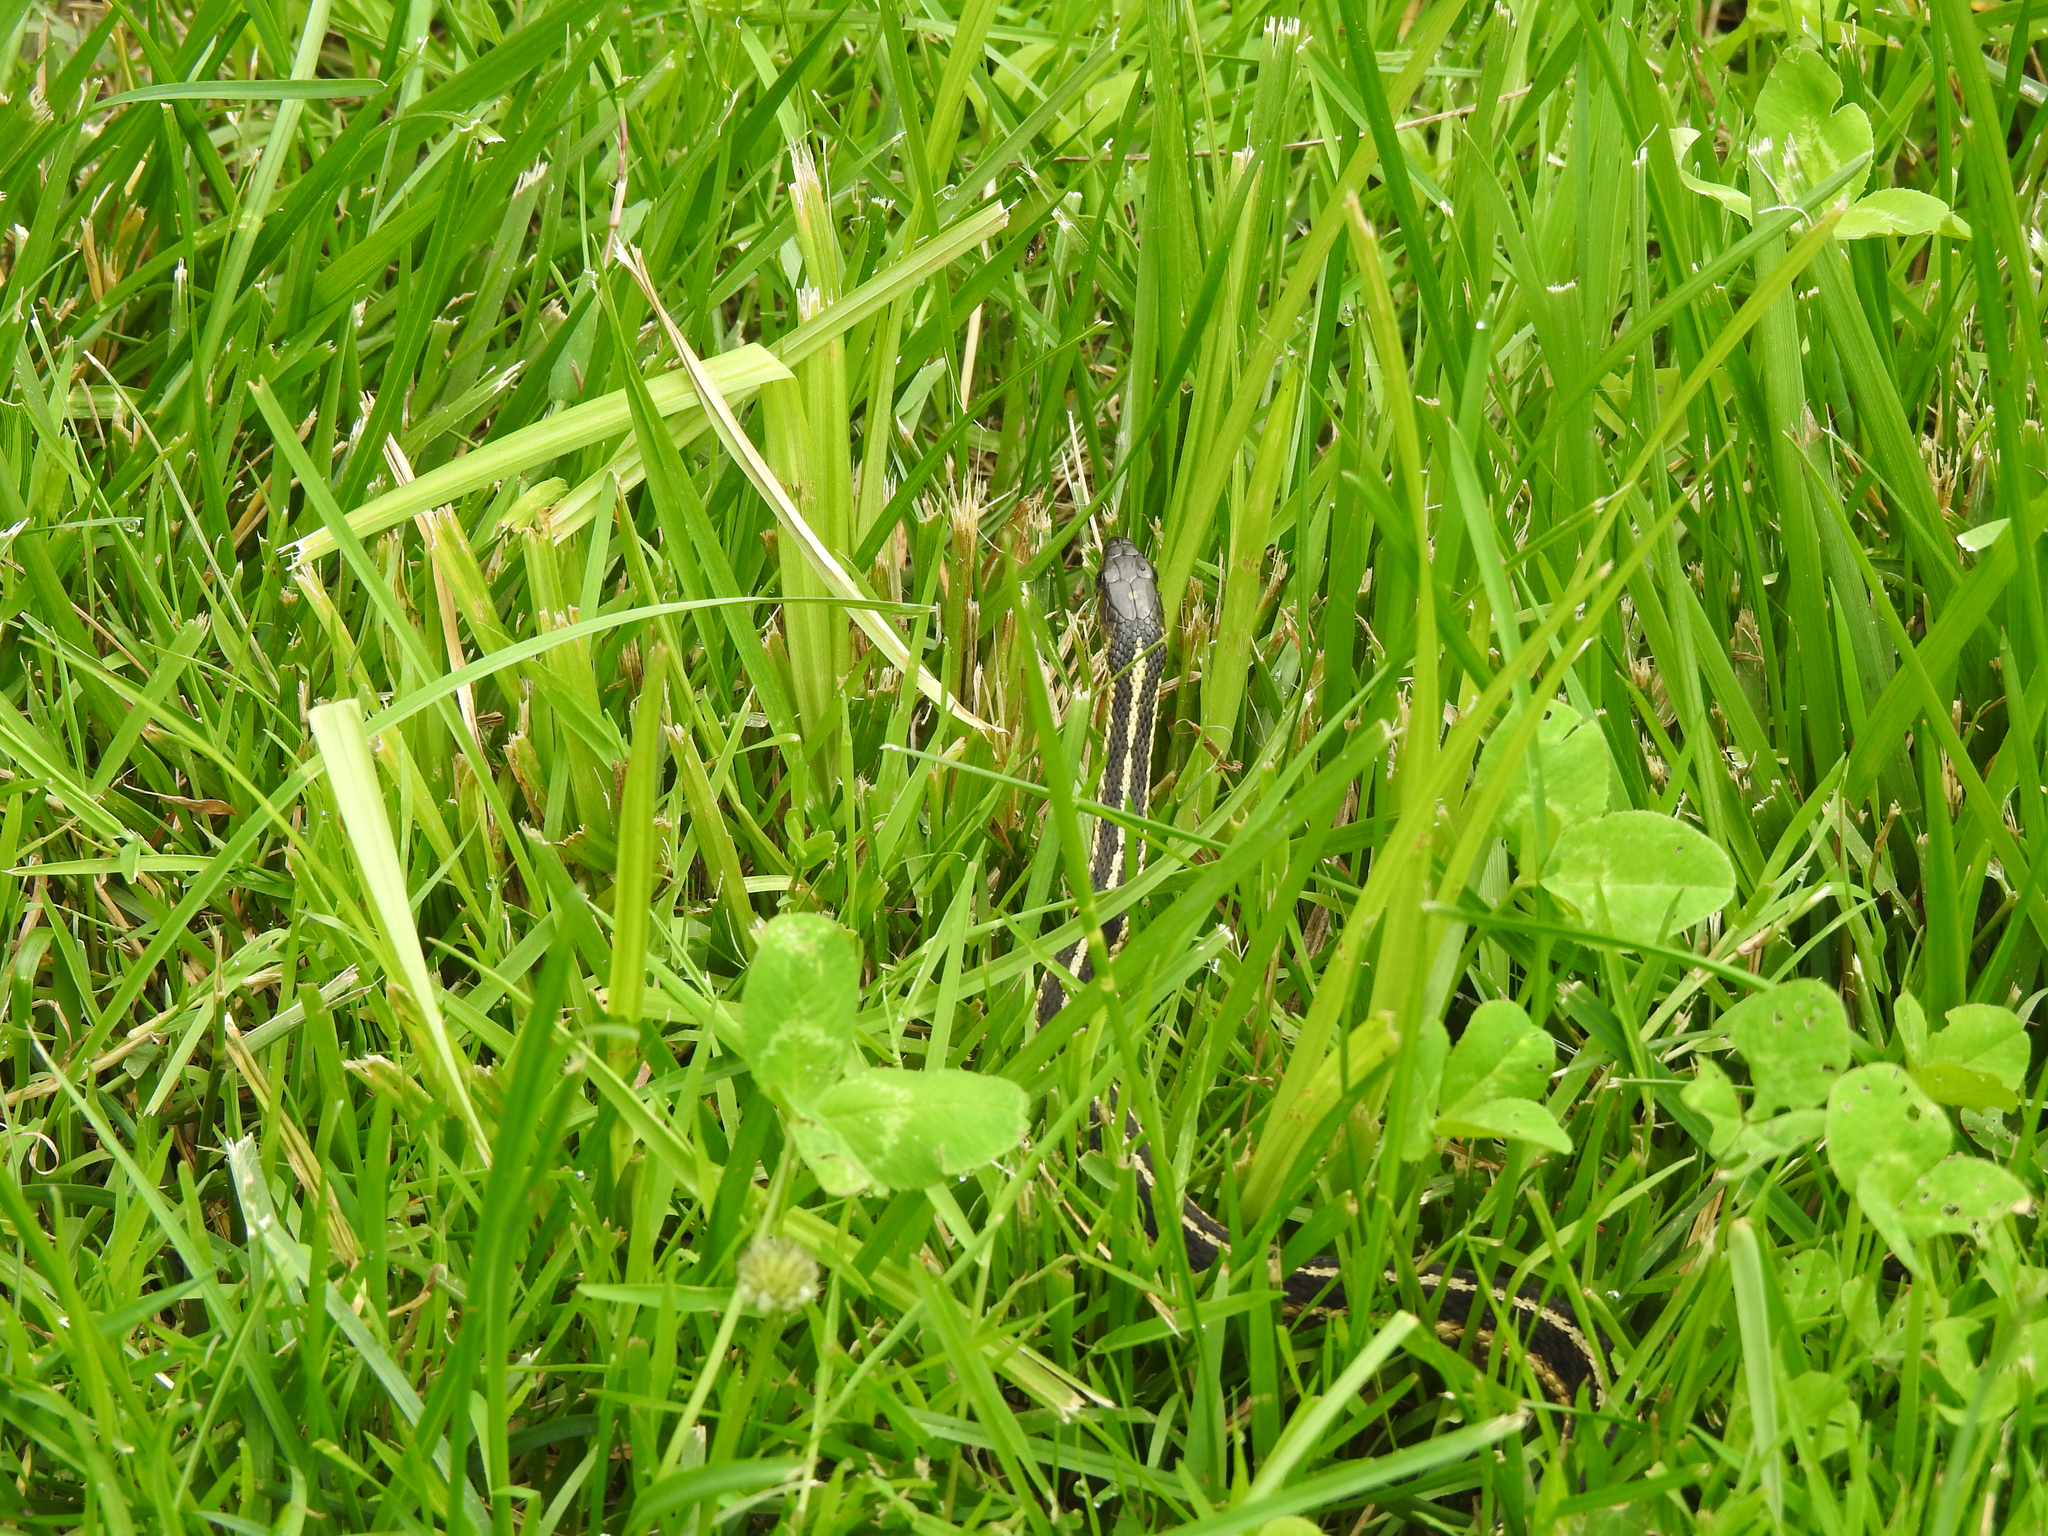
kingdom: Animalia
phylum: Chordata
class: Squamata
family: Colubridae
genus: Thamnophis
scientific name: Thamnophis sirtalis
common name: Common garter snake
